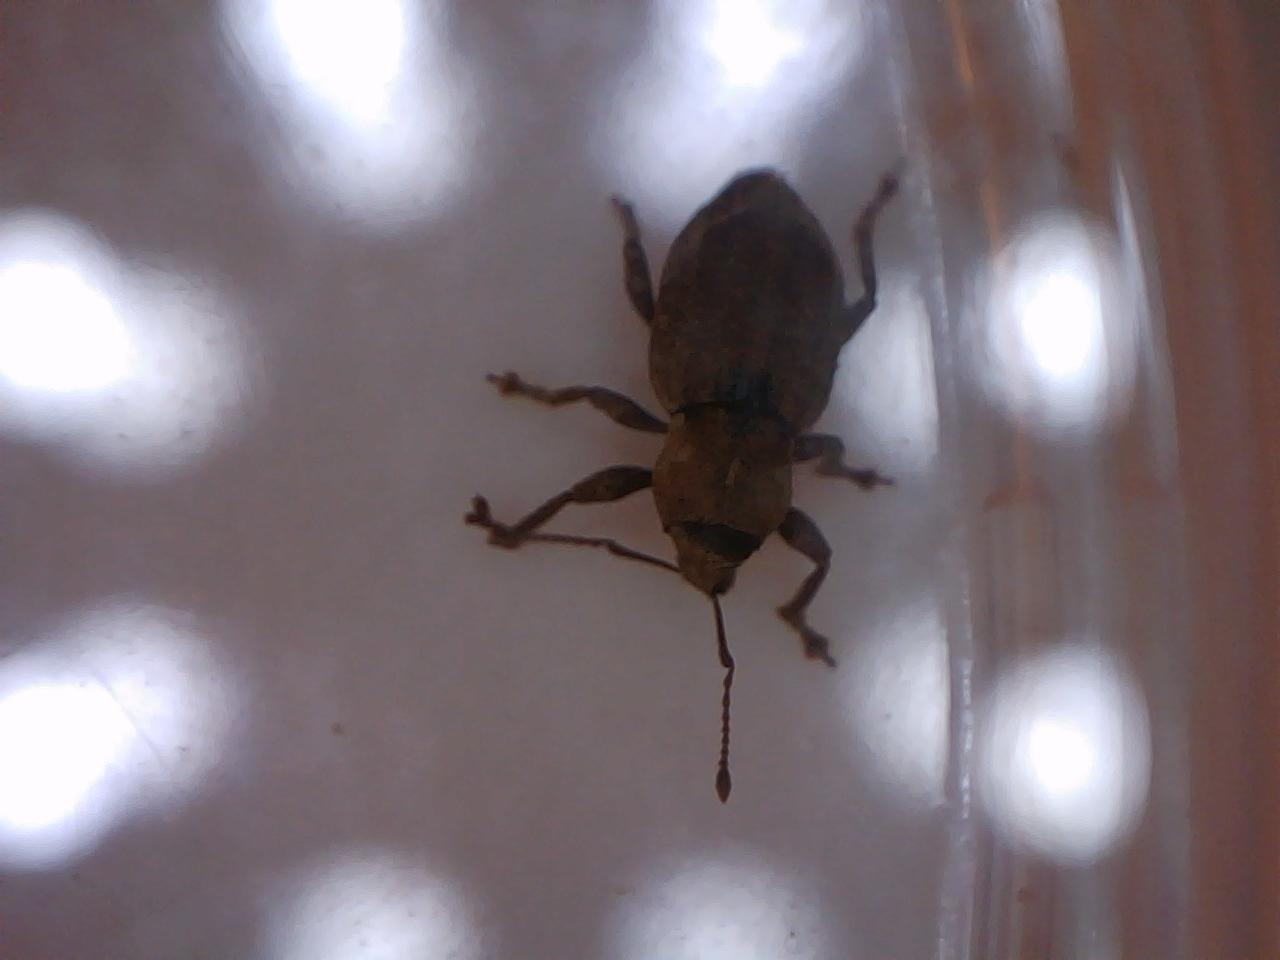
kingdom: Animalia
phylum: Arthropoda
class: Insecta
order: Coleoptera
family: Curculionidae
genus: Chalepistes
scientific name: Chalepistes compressus
